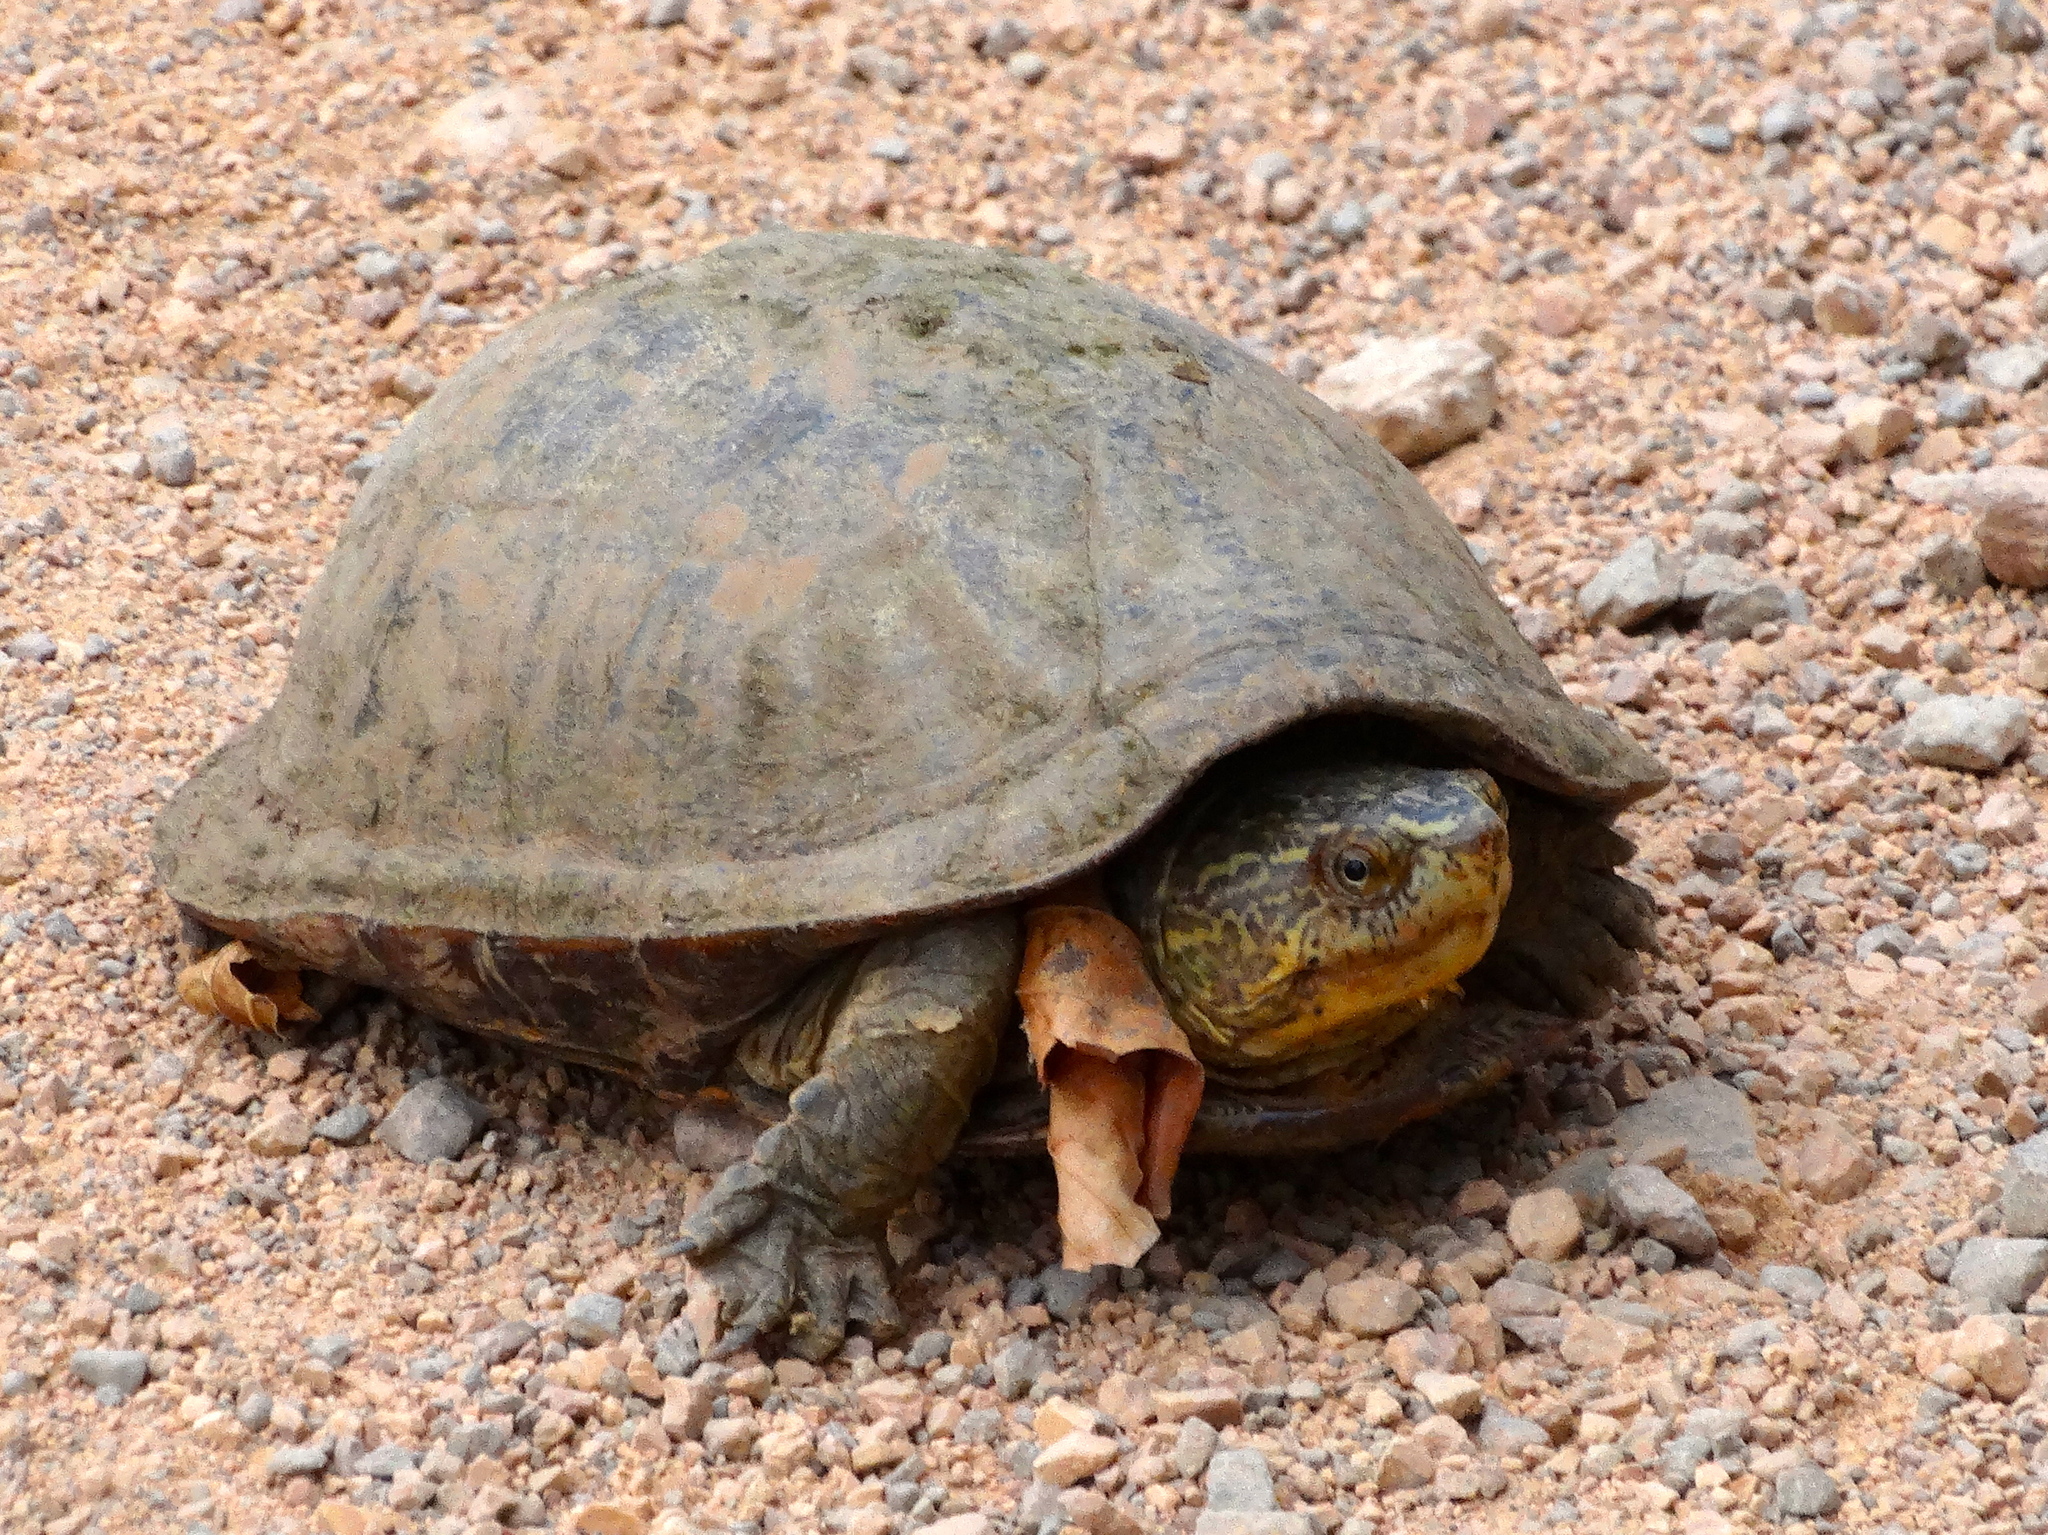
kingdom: Animalia
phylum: Chordata
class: Testudines
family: Kinosternidae
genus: Kinosternon
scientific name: Kinosternon integrum
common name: Mexican mud turtle
